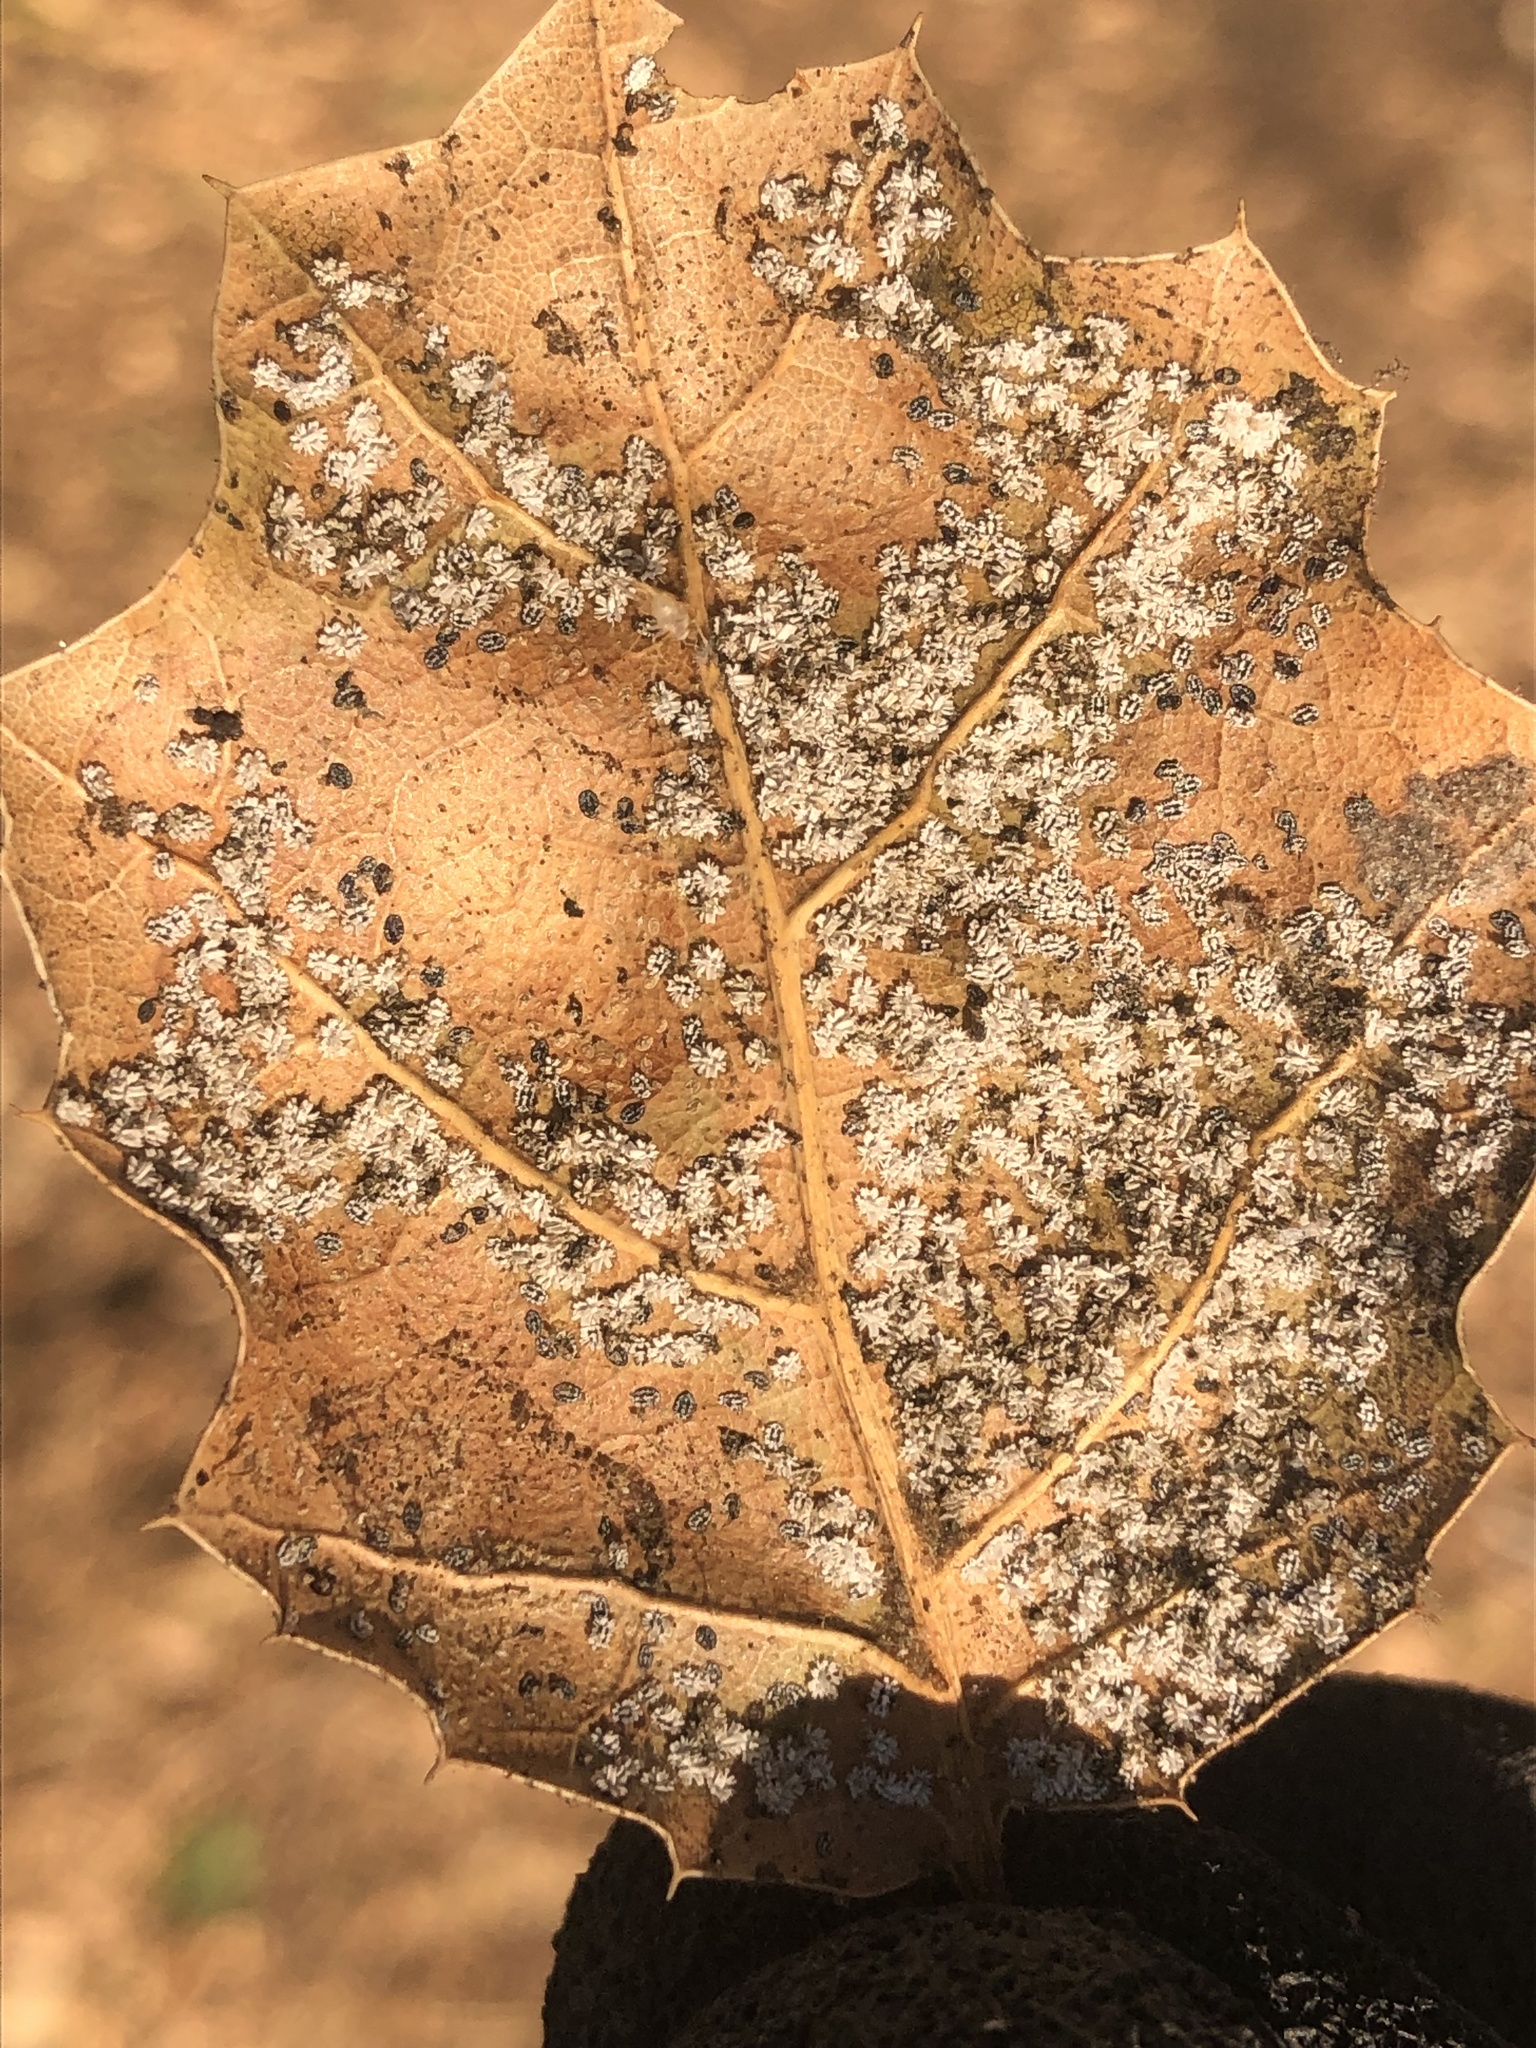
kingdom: Animalia
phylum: Arthropoda
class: Insecta
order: Hemiptera
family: Aleyrodidae
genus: Aleuroplatus
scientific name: Aleuroplatus coronata
